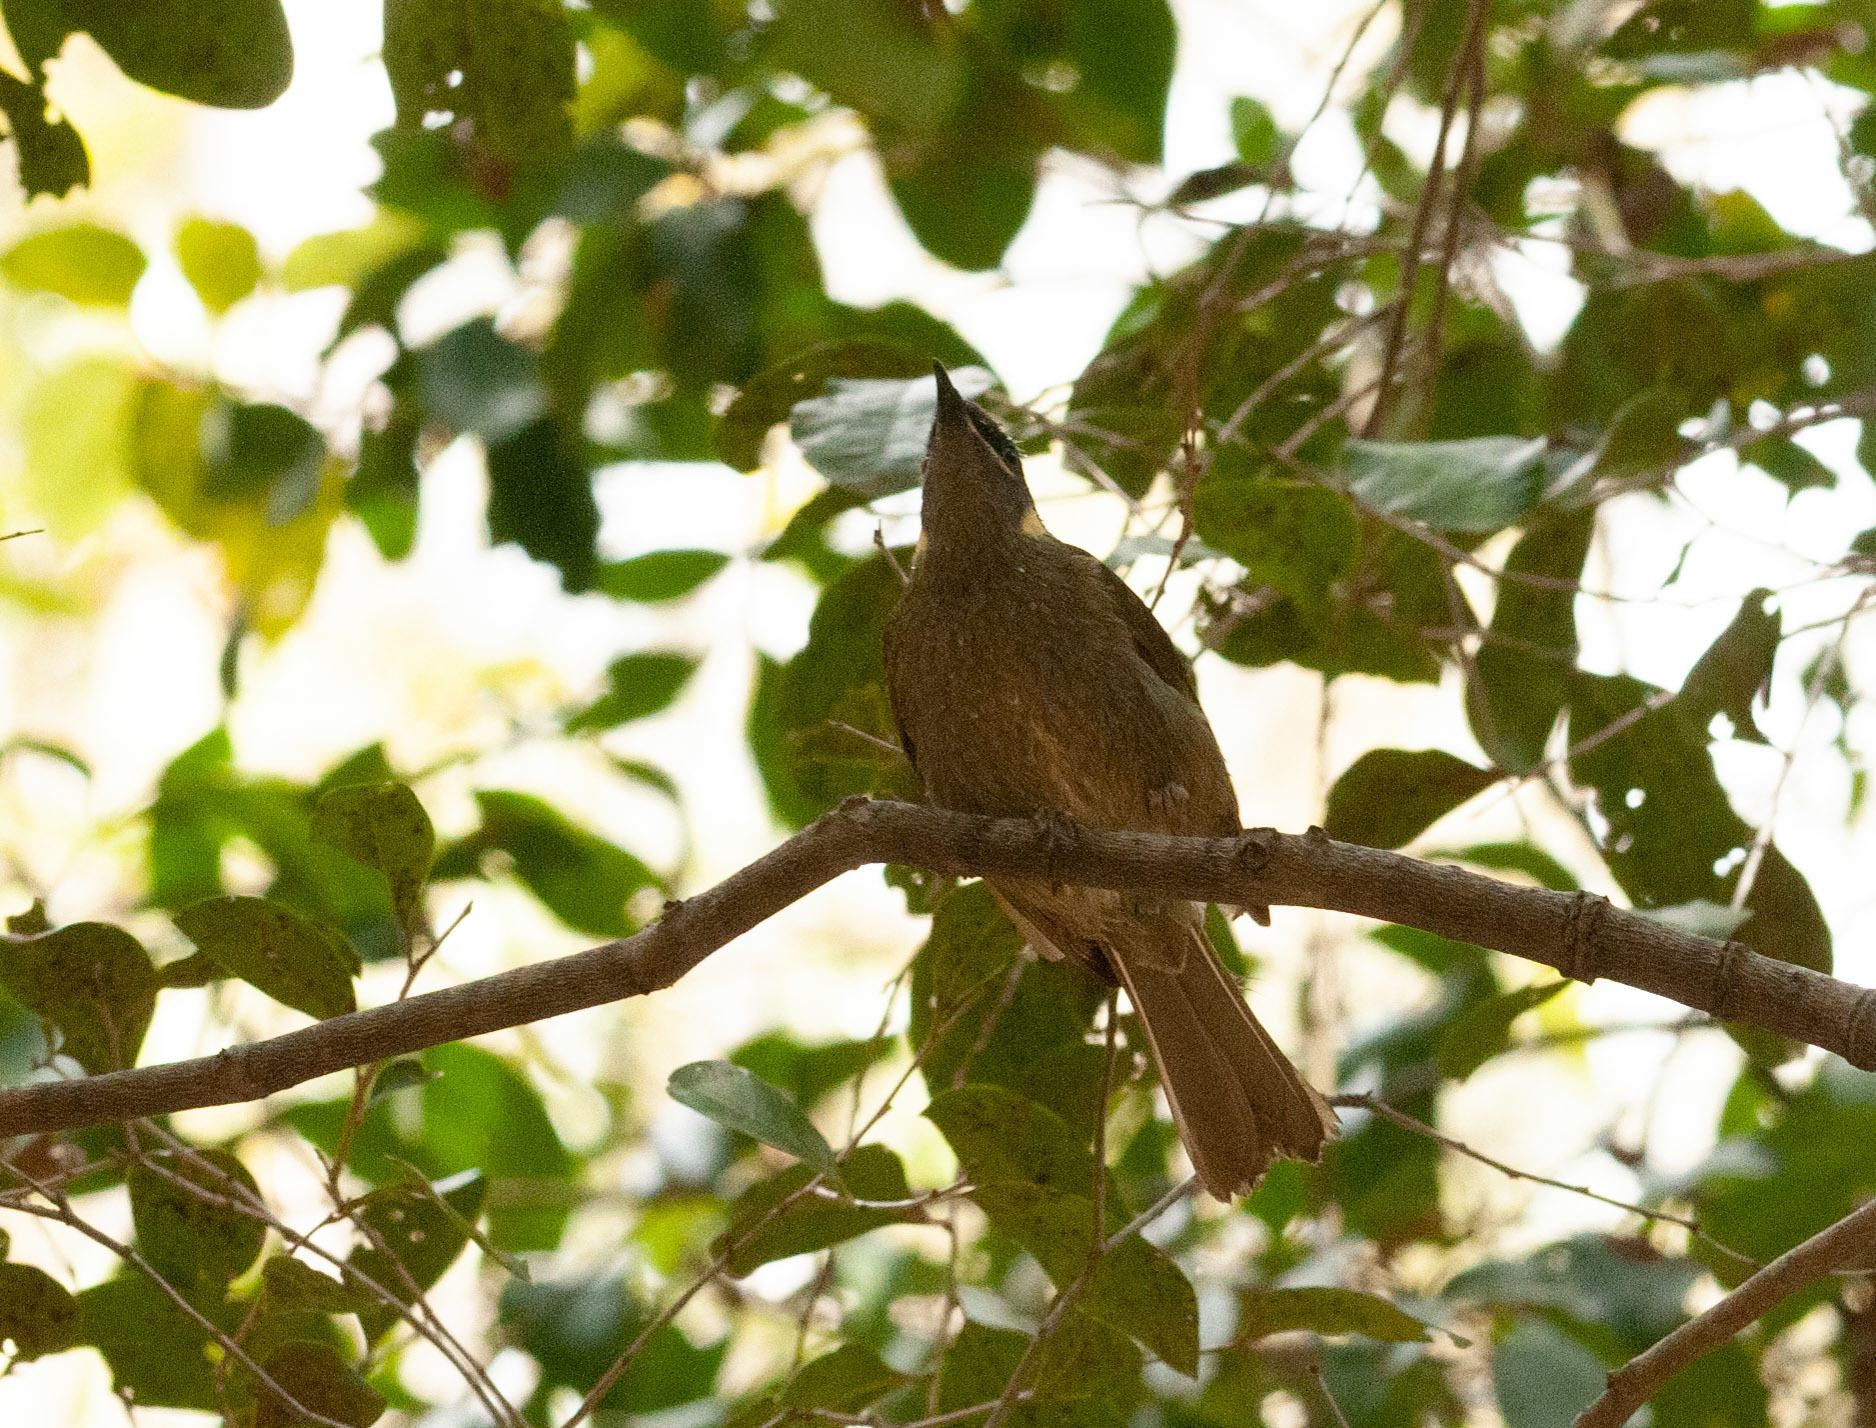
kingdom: Animalia
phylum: Chordata
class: Aves
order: Passeriformes
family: Meliphagidae
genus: Meliphaga
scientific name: Meliphaga lewinii
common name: Lewin's honeyeater
